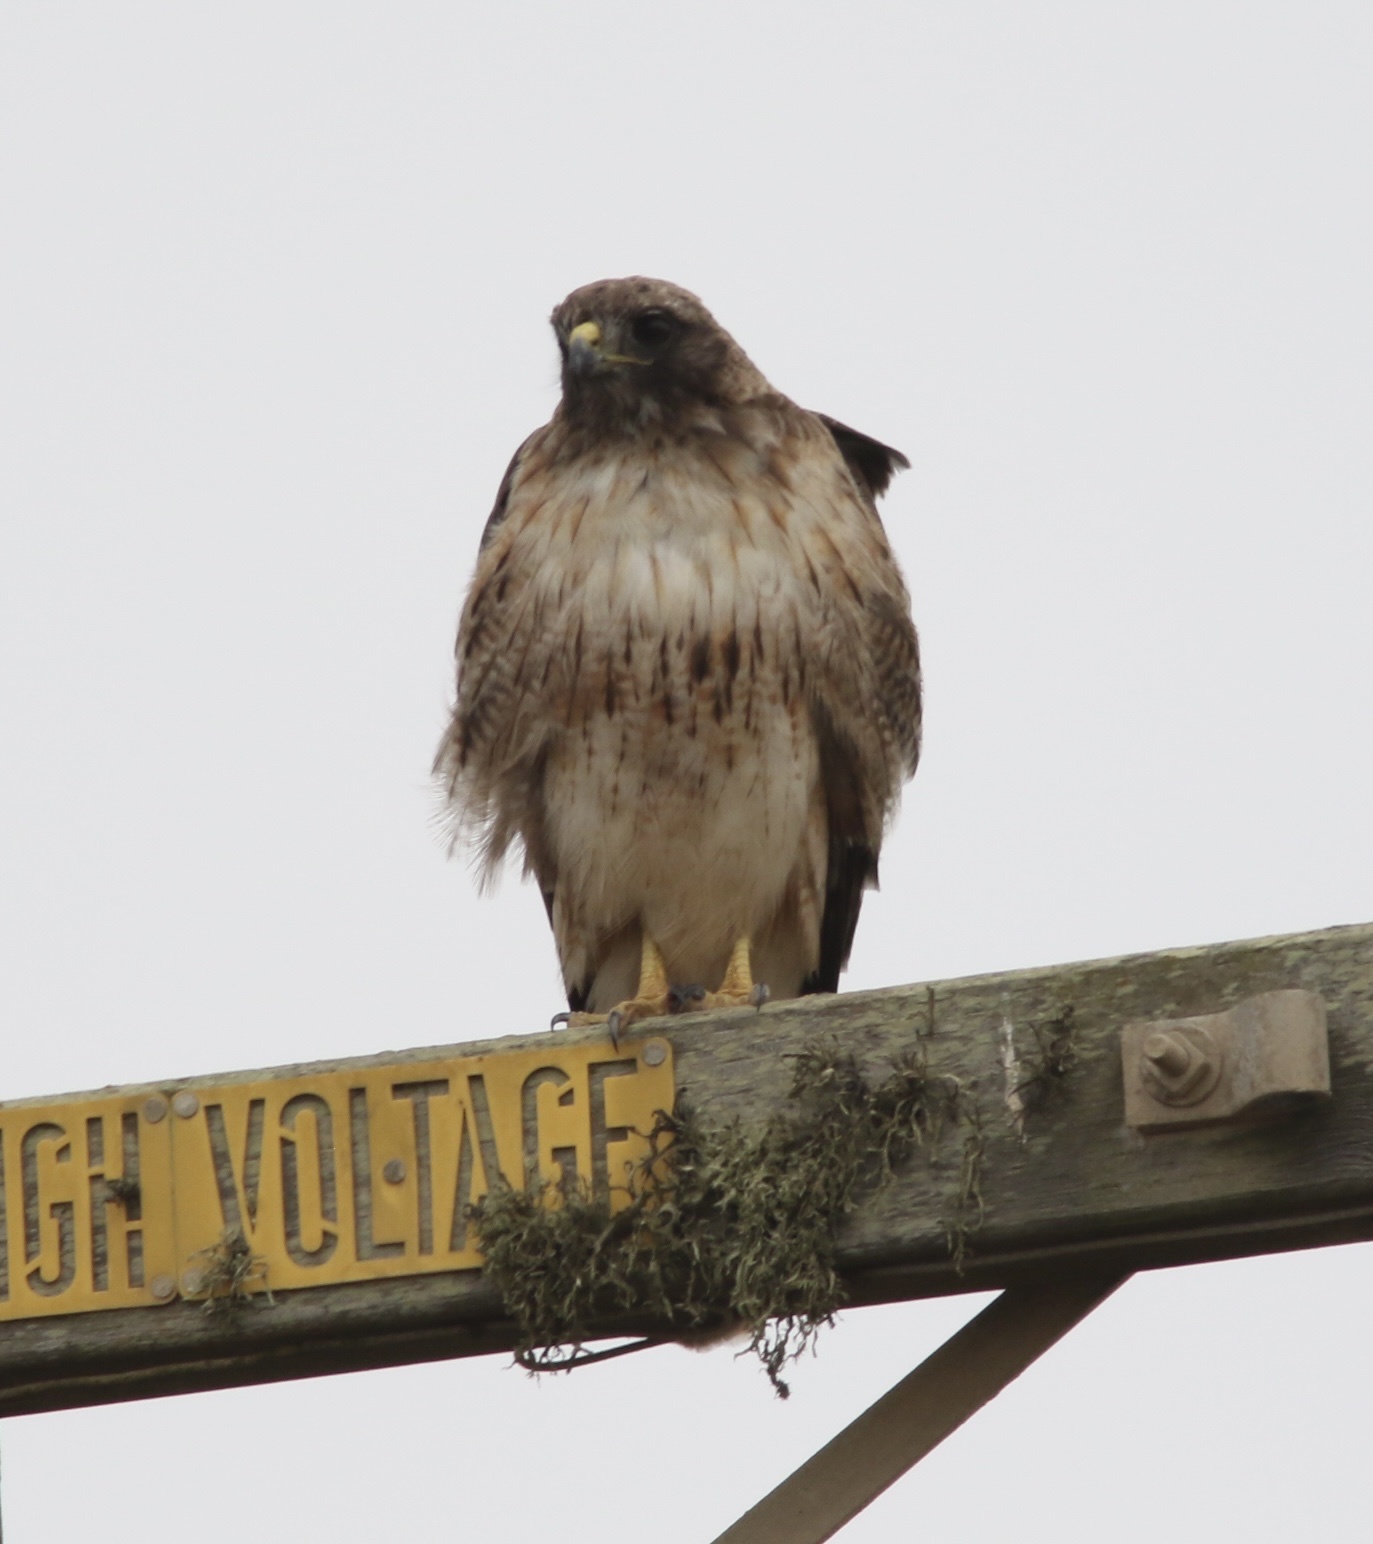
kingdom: Animalia
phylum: Chordata
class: Aves
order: Accipitriformes
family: Accipitridae
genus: Buteo
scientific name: Buteo jamaicensis
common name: Red-tailed hawk
